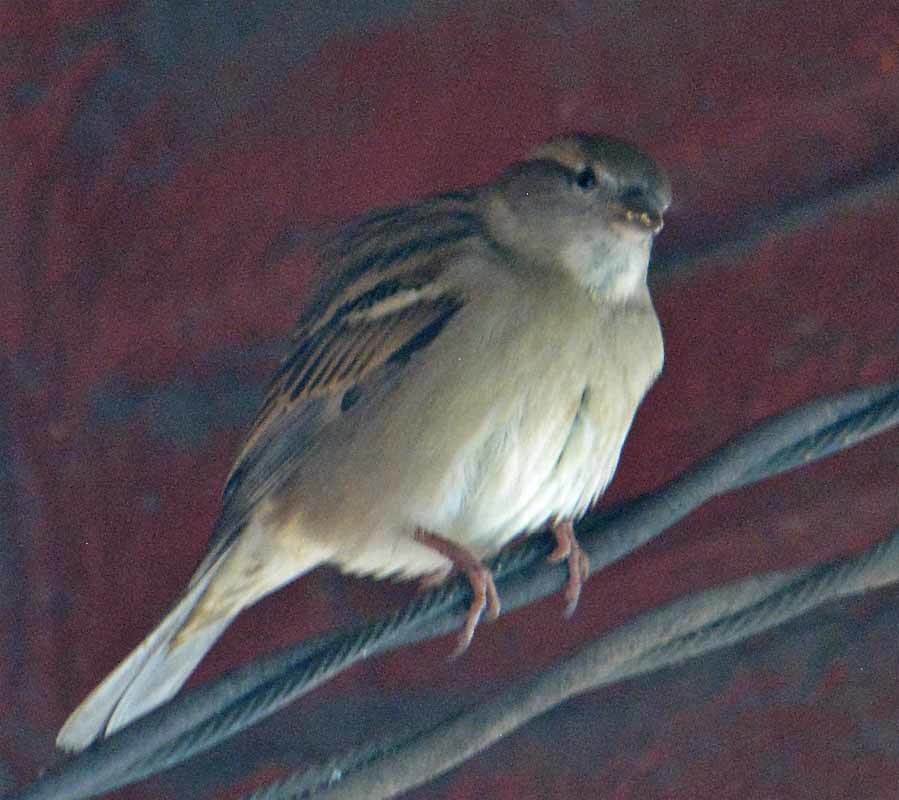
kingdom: Animalia
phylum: Chordata
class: Aves
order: Passeriformes
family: Passeridae
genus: Passer
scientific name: Passer domesticus
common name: House sparrow
